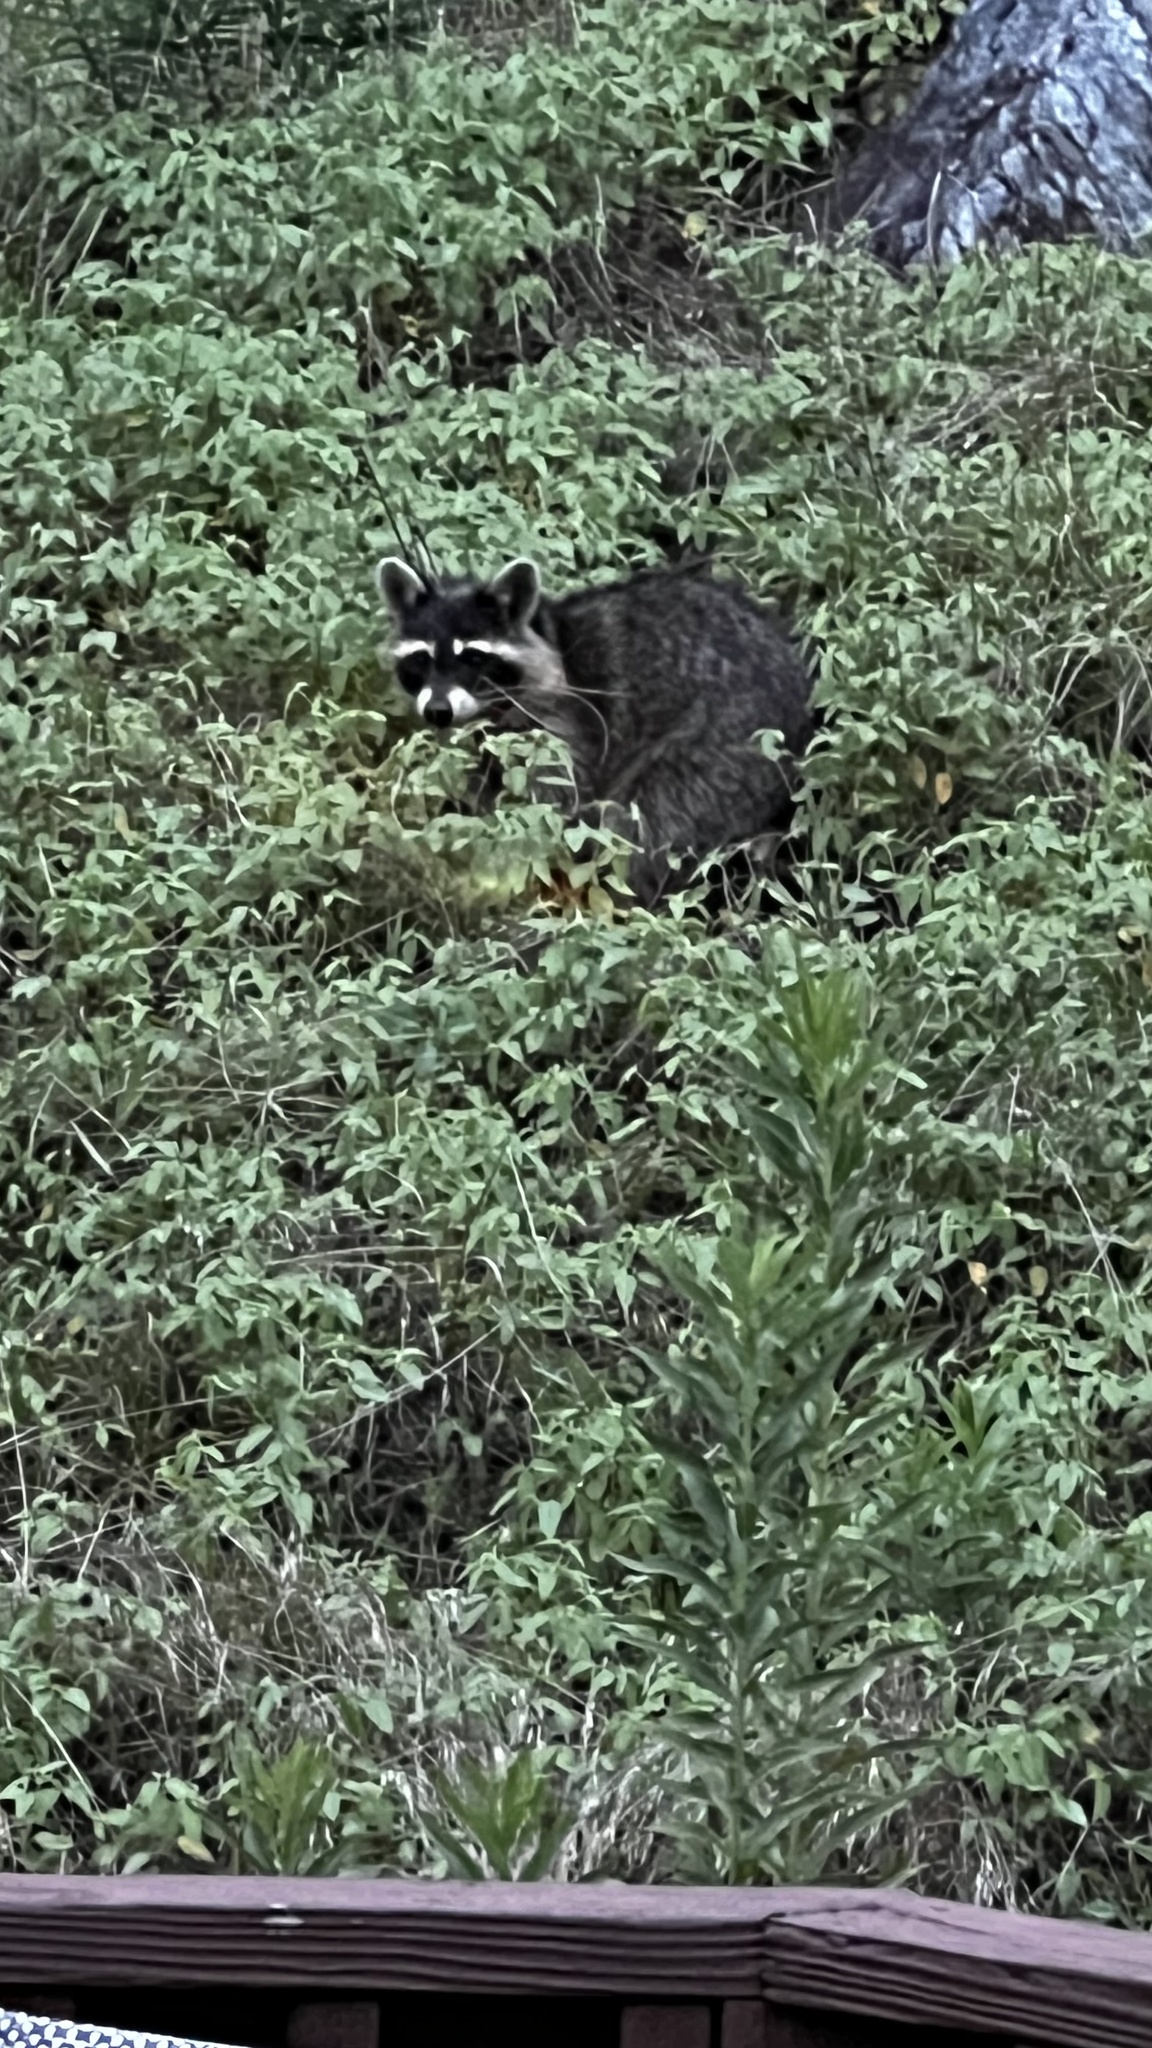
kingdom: Animalia
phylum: Chordata
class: Mammalia
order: Carnivora
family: Procyonidae
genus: Procyon
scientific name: Procyon lotor
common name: Raccoon
